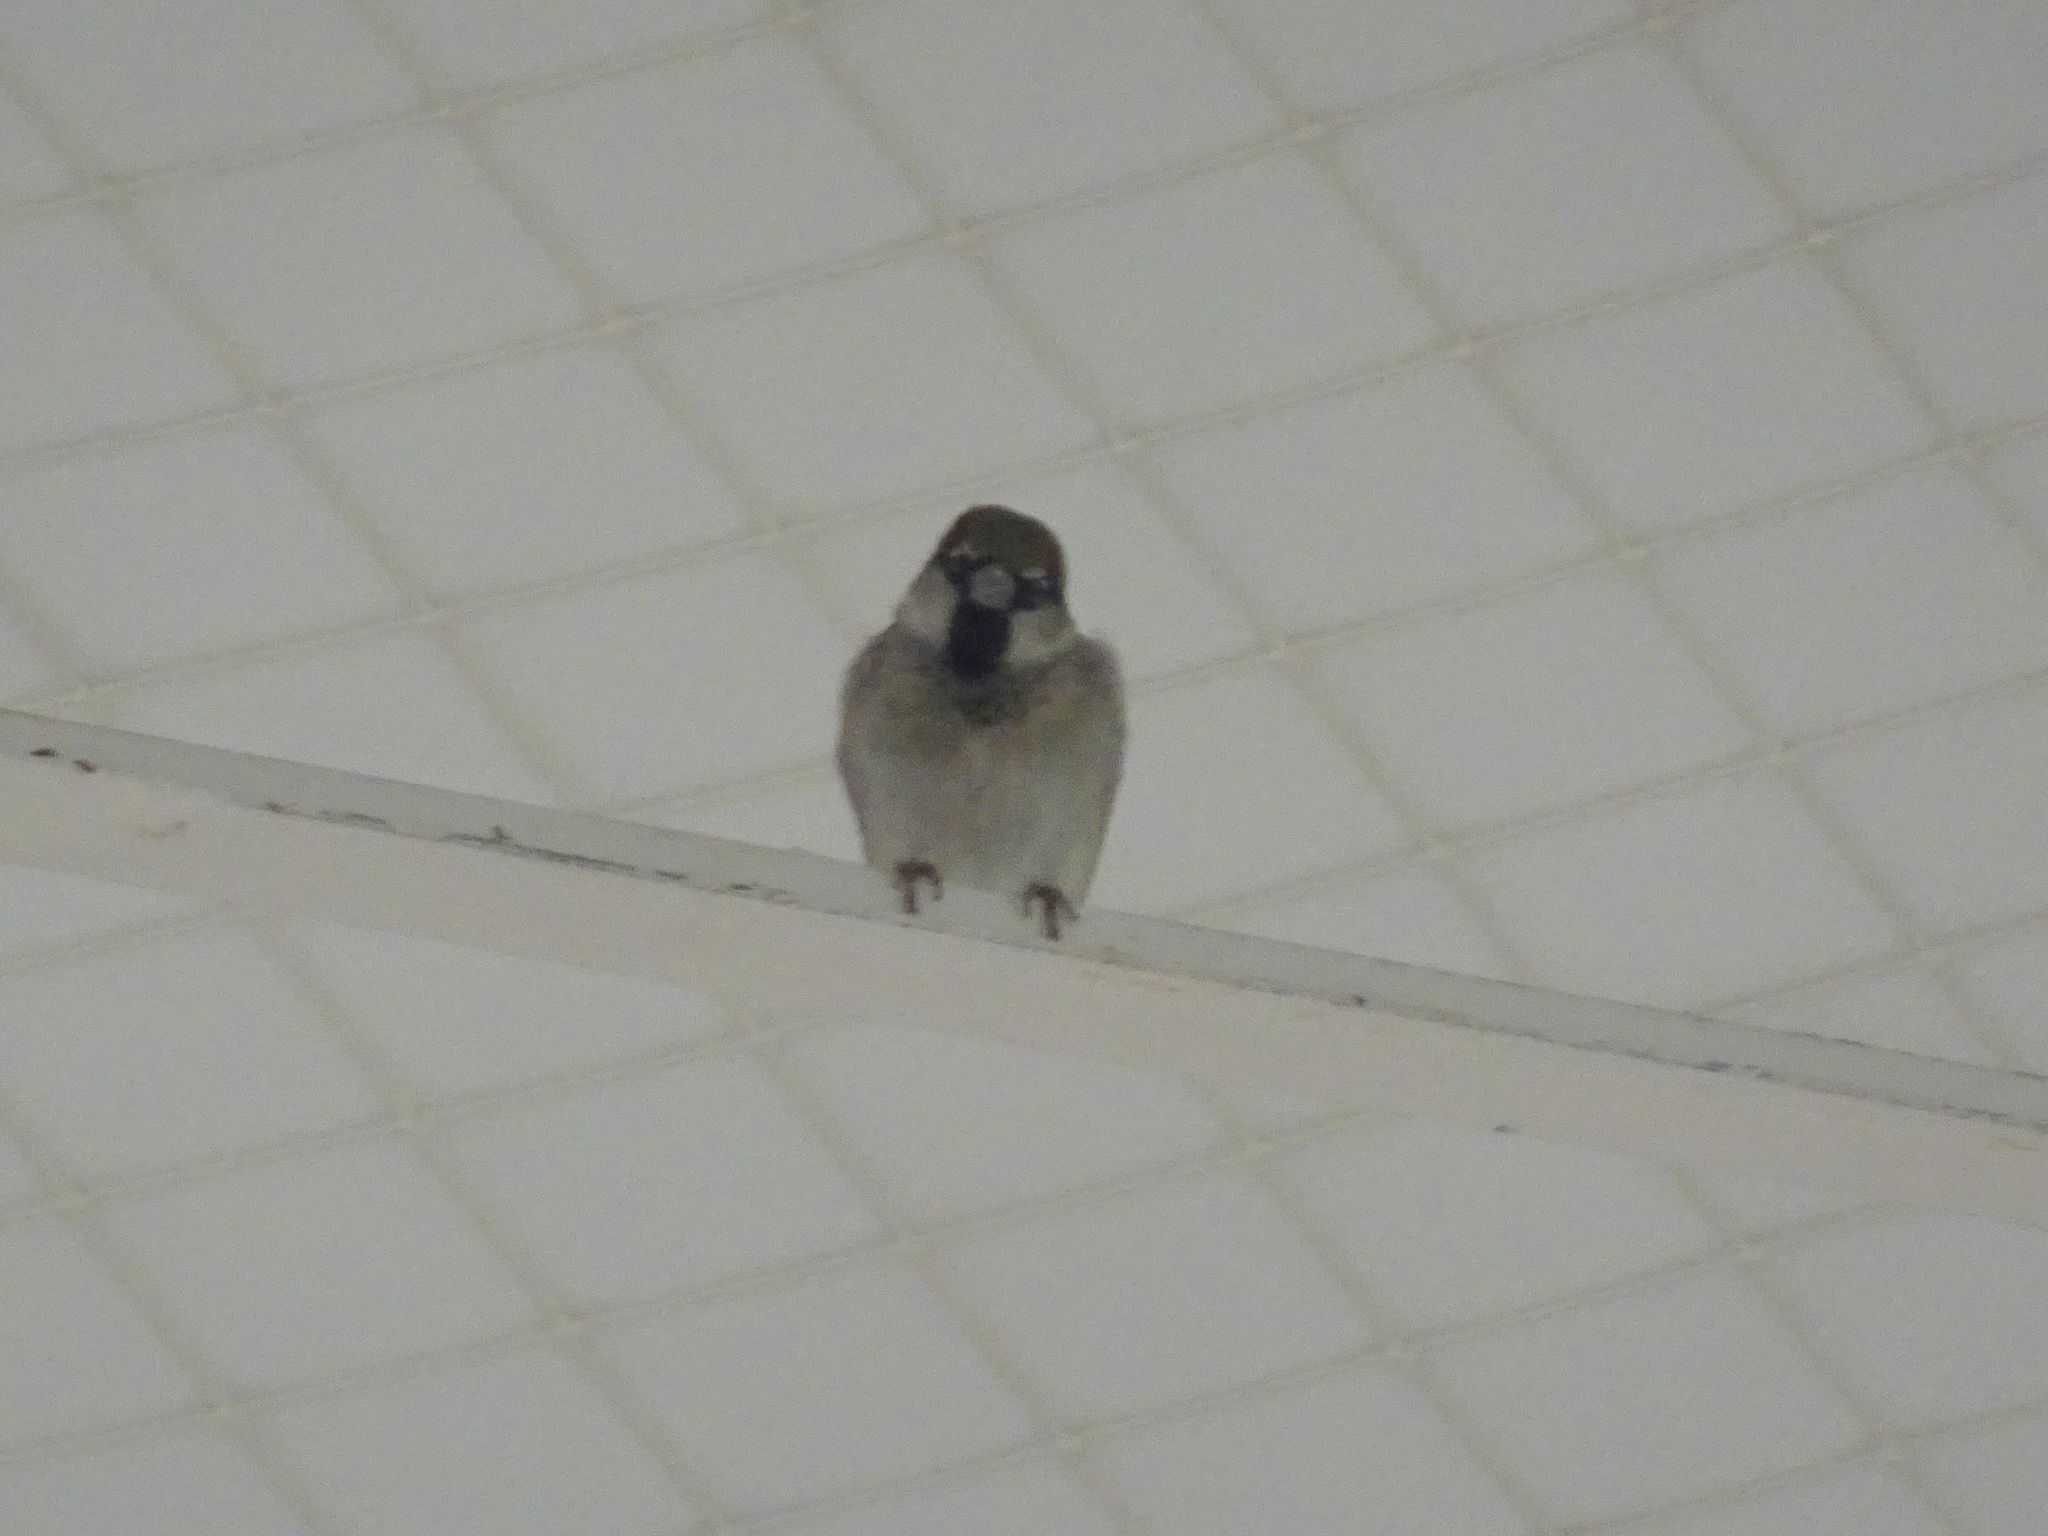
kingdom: Animalia
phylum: Chordata
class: Aves
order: Passeriformes
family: Passeridae
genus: Passer
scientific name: Passer domesticus
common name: House sparrow
